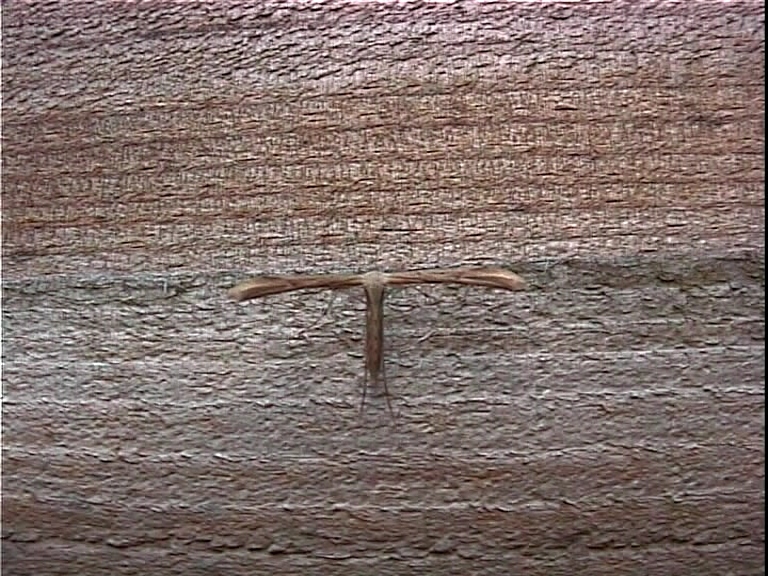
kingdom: Animalia
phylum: Arthropoda
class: Insecta
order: Lepidoptera
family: Pterophoridae
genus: Emmelina
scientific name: Emmelina monodactyla
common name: Common plume
